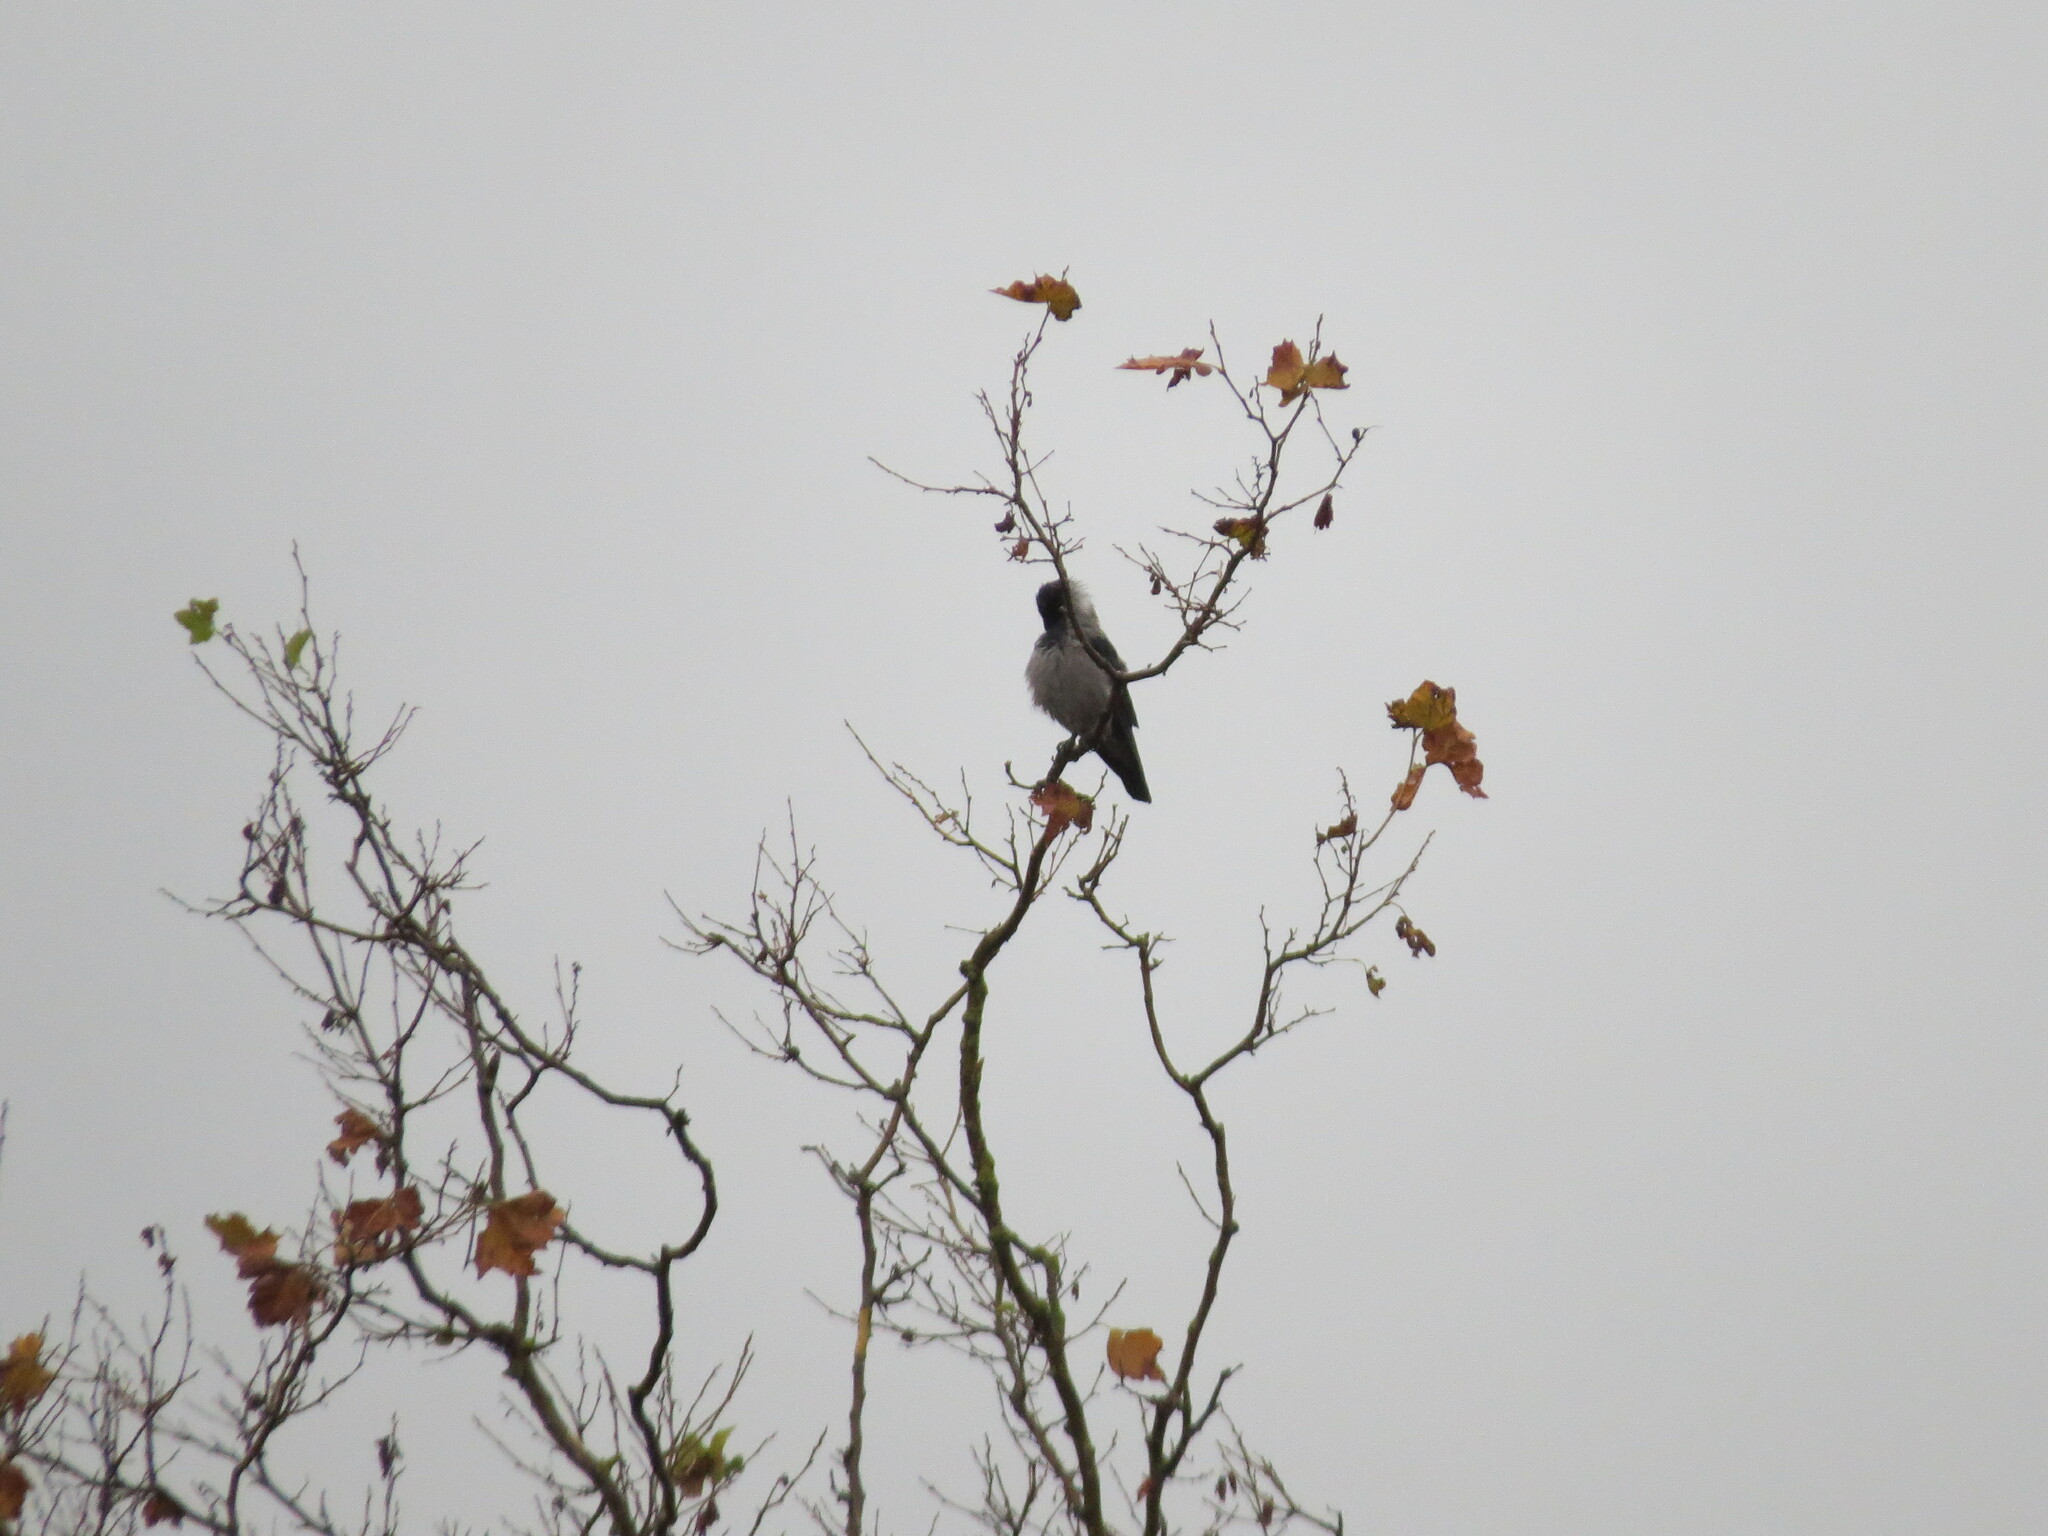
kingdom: Animalia
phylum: Chordata
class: Aves
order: Passeriformes
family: Corvidae
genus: Corvus
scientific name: Corvus cornix
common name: Hooded crow
